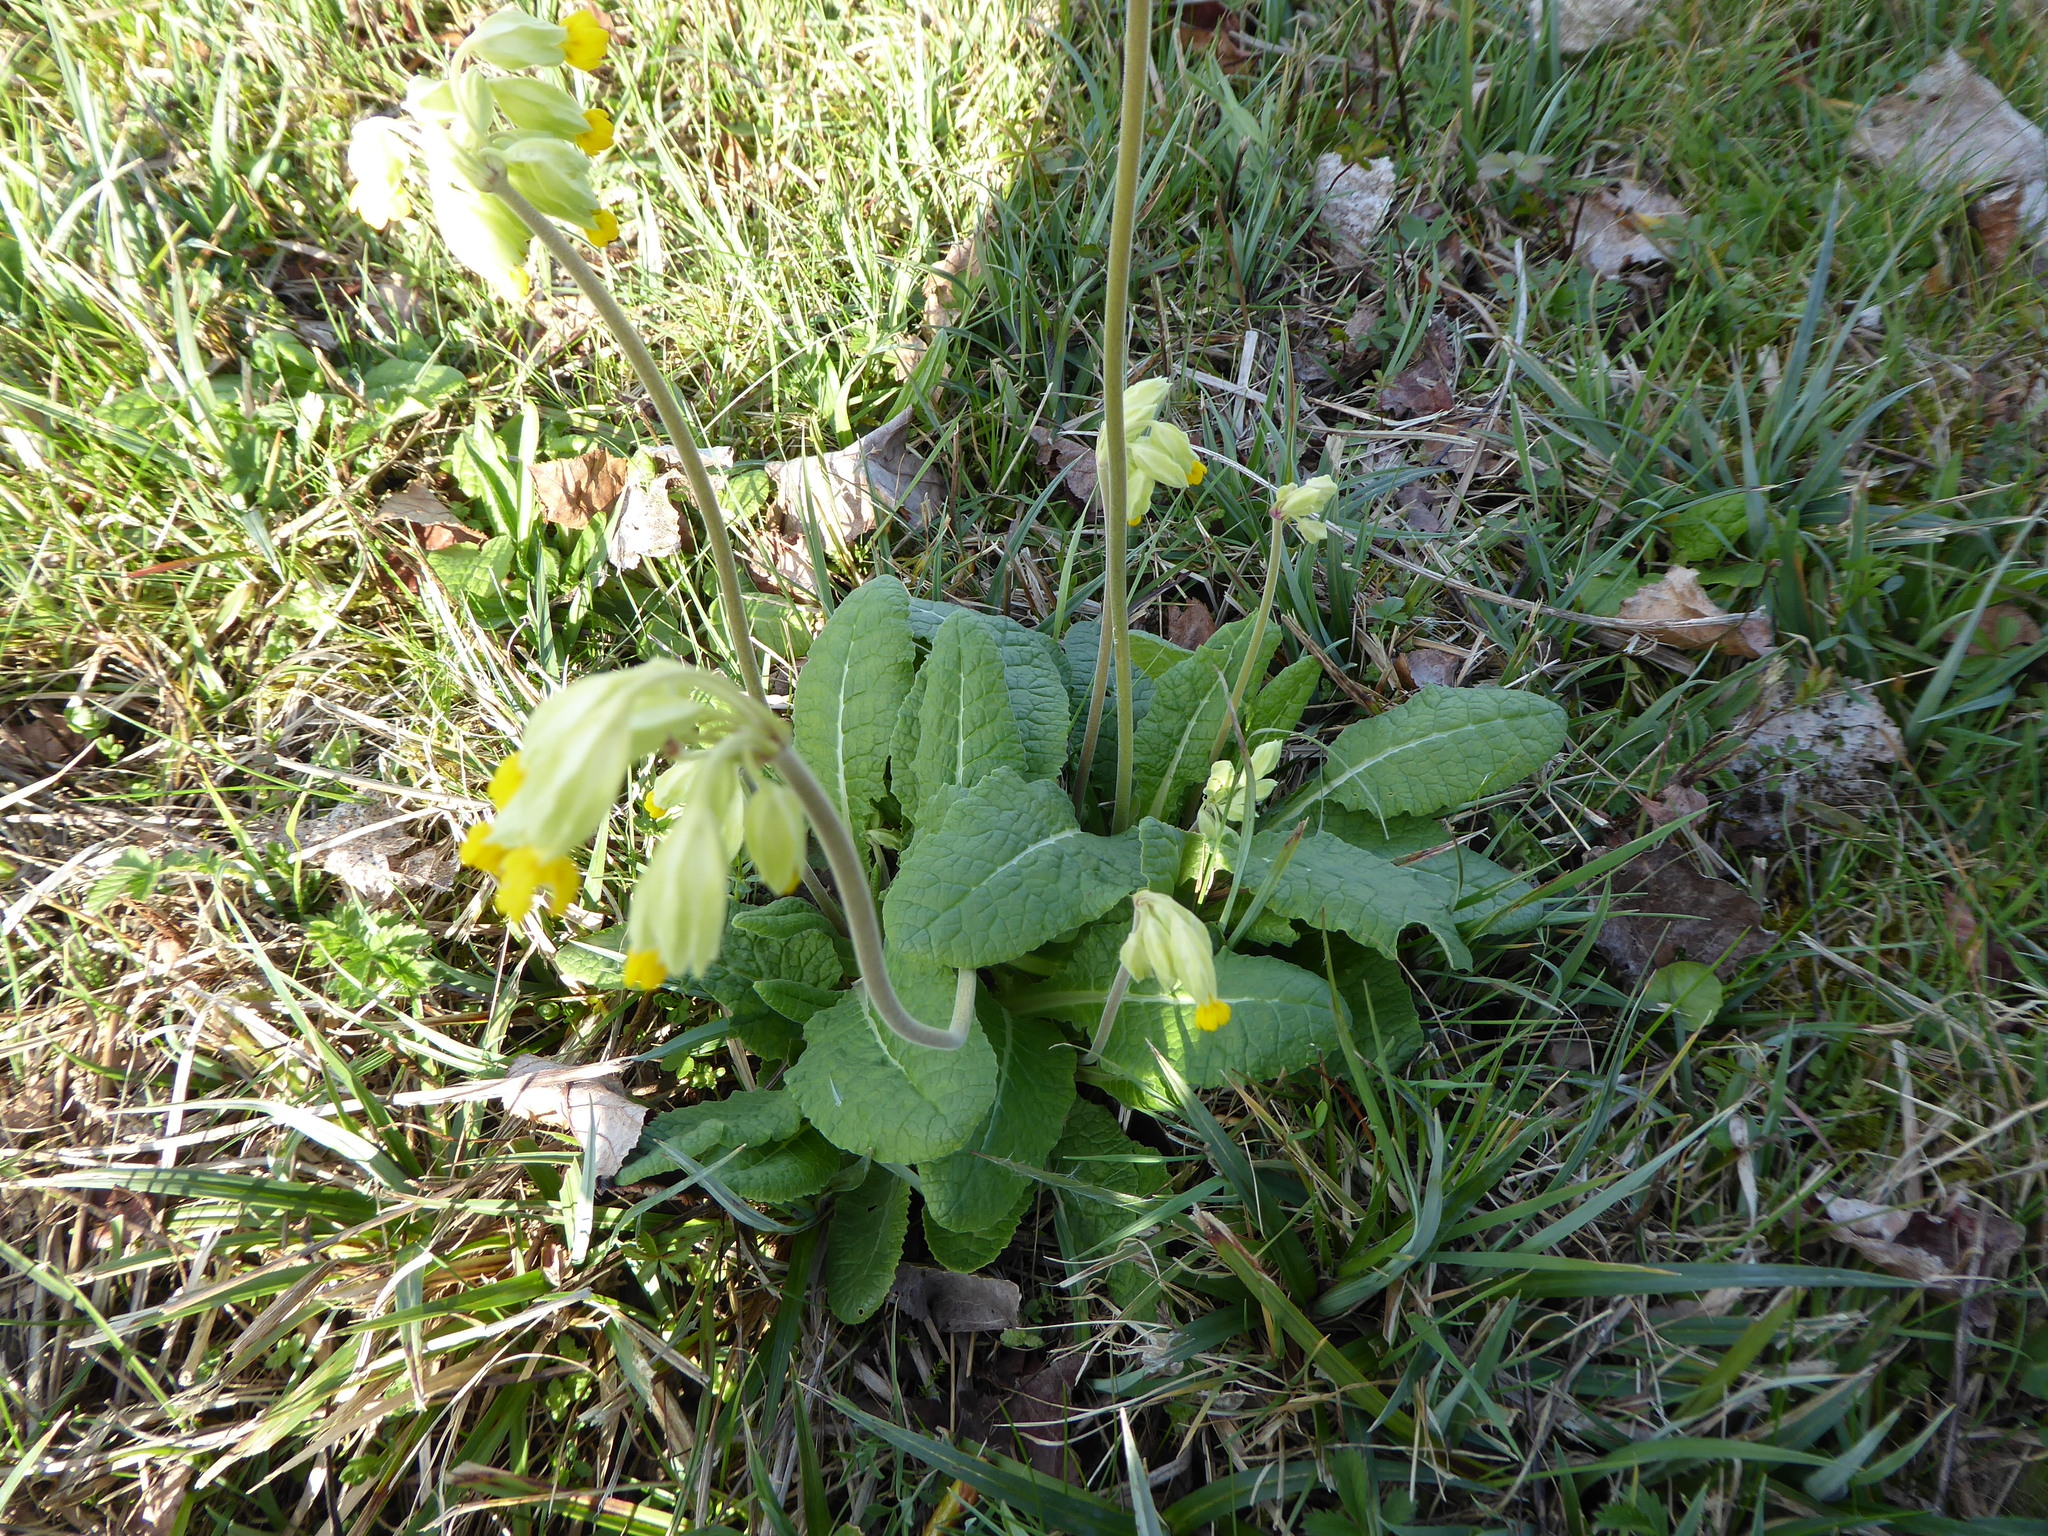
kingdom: Plantae
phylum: Tracheophyta
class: Magnoliopsida
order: Ericales
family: Primulaceae
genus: Primula
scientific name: Primula veris
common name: Cowslip
